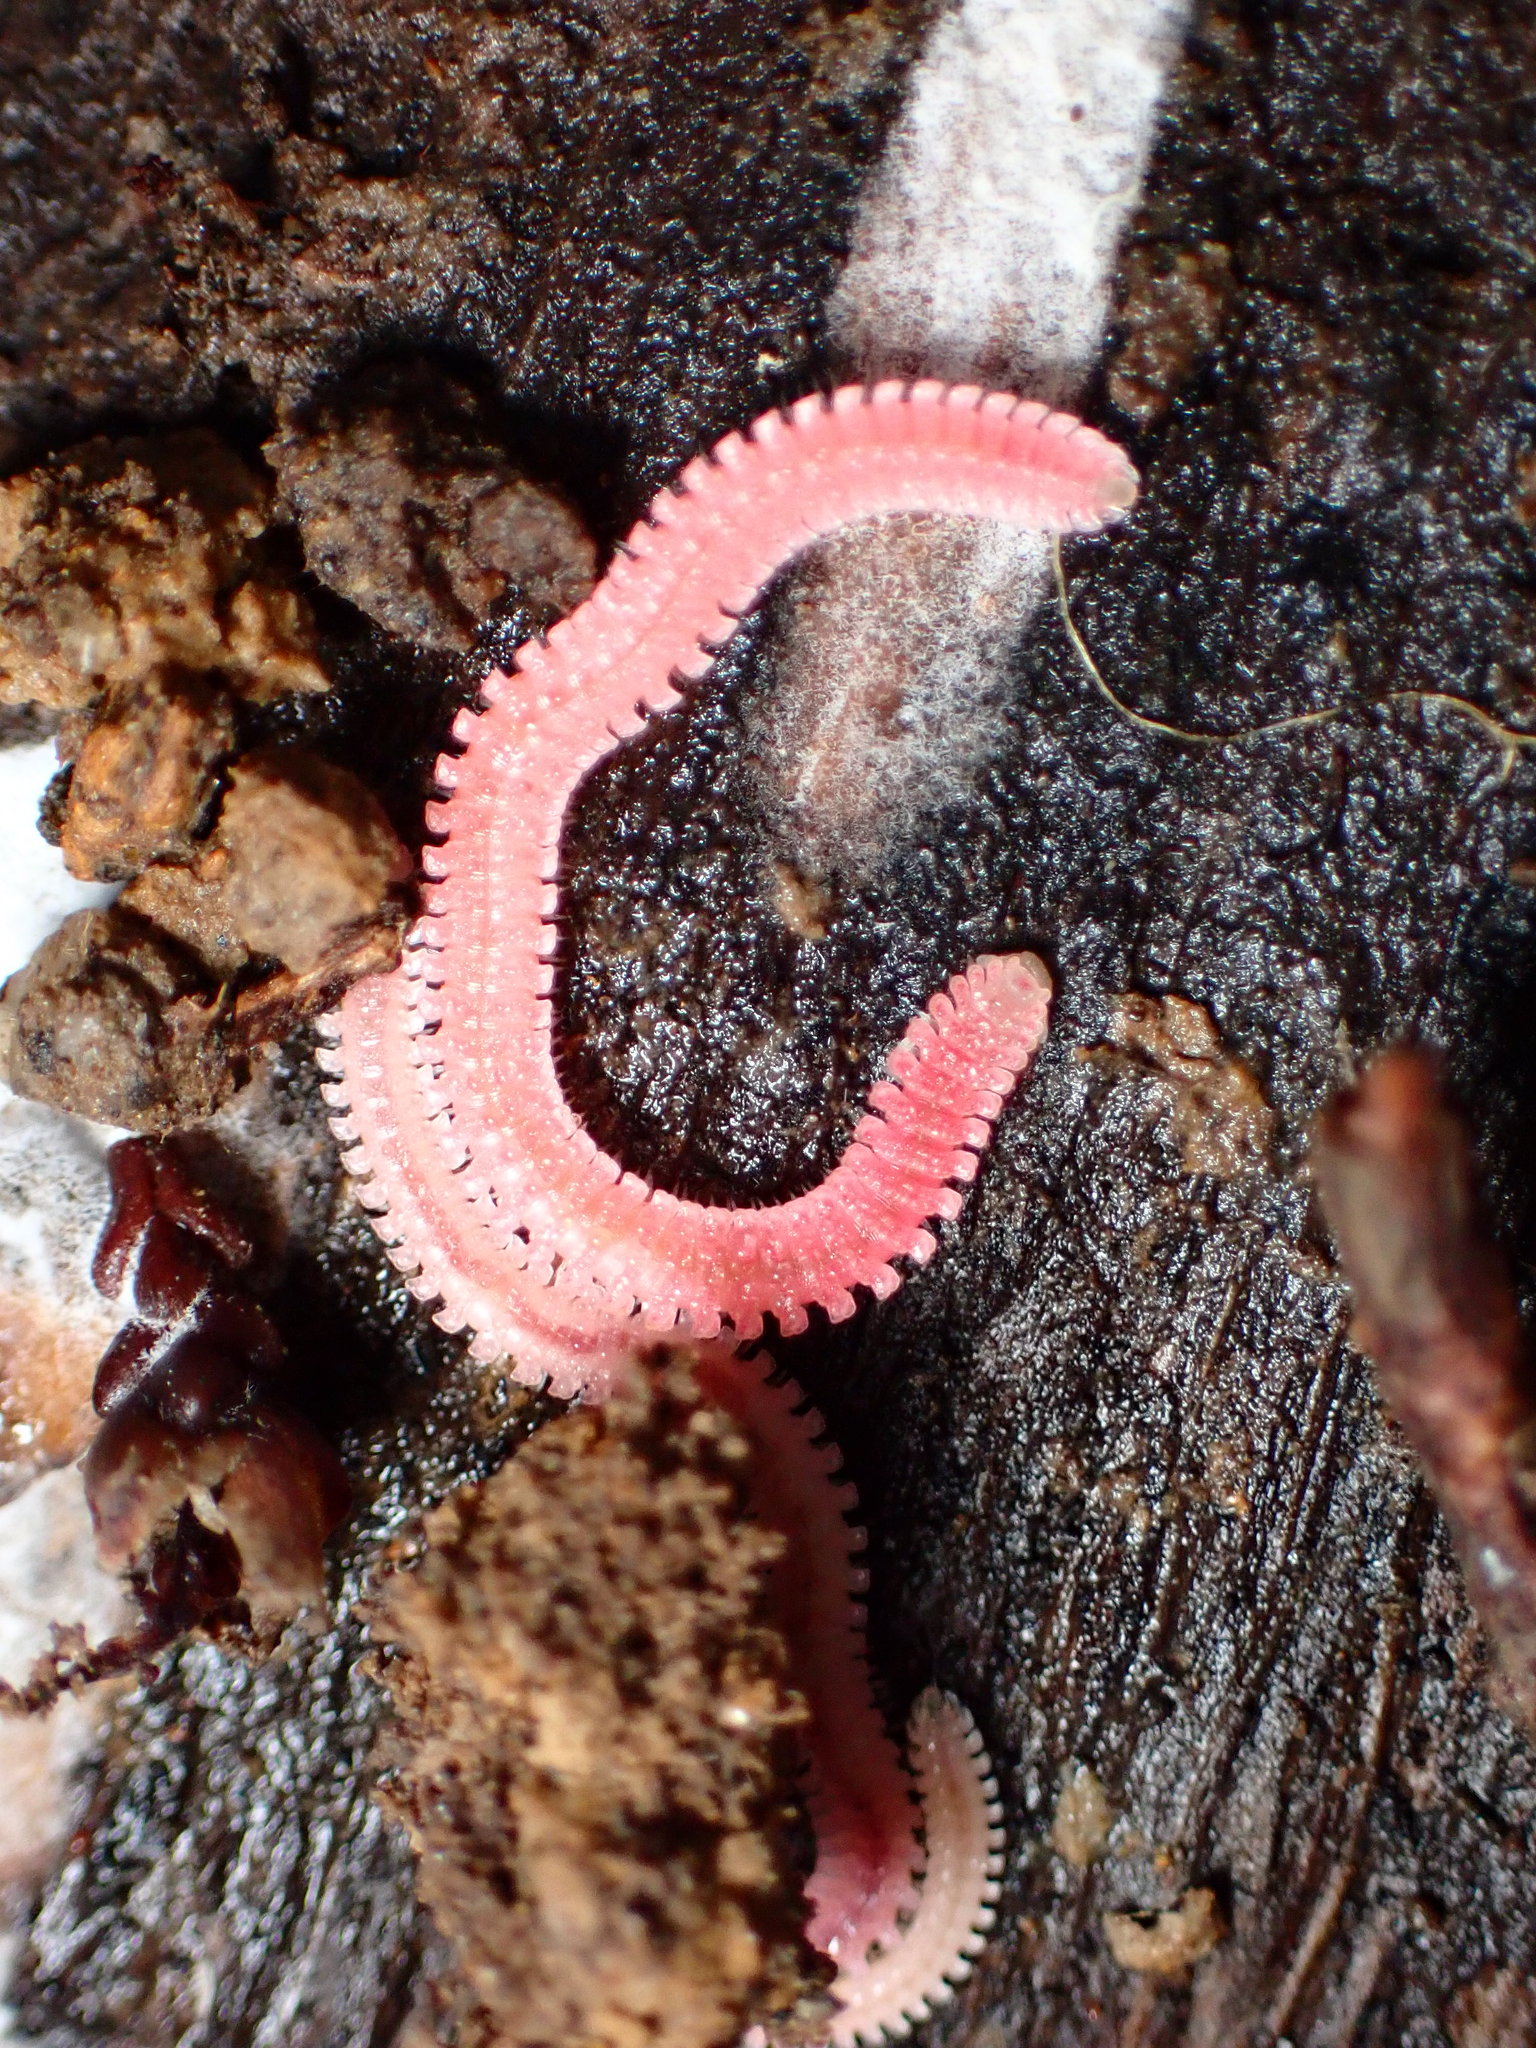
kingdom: Animalia
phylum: Arthropoda
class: Diplopoda
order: Platydesmida
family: Andrognathidae
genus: Gosodesmus
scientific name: Gosodesmus claremontus
